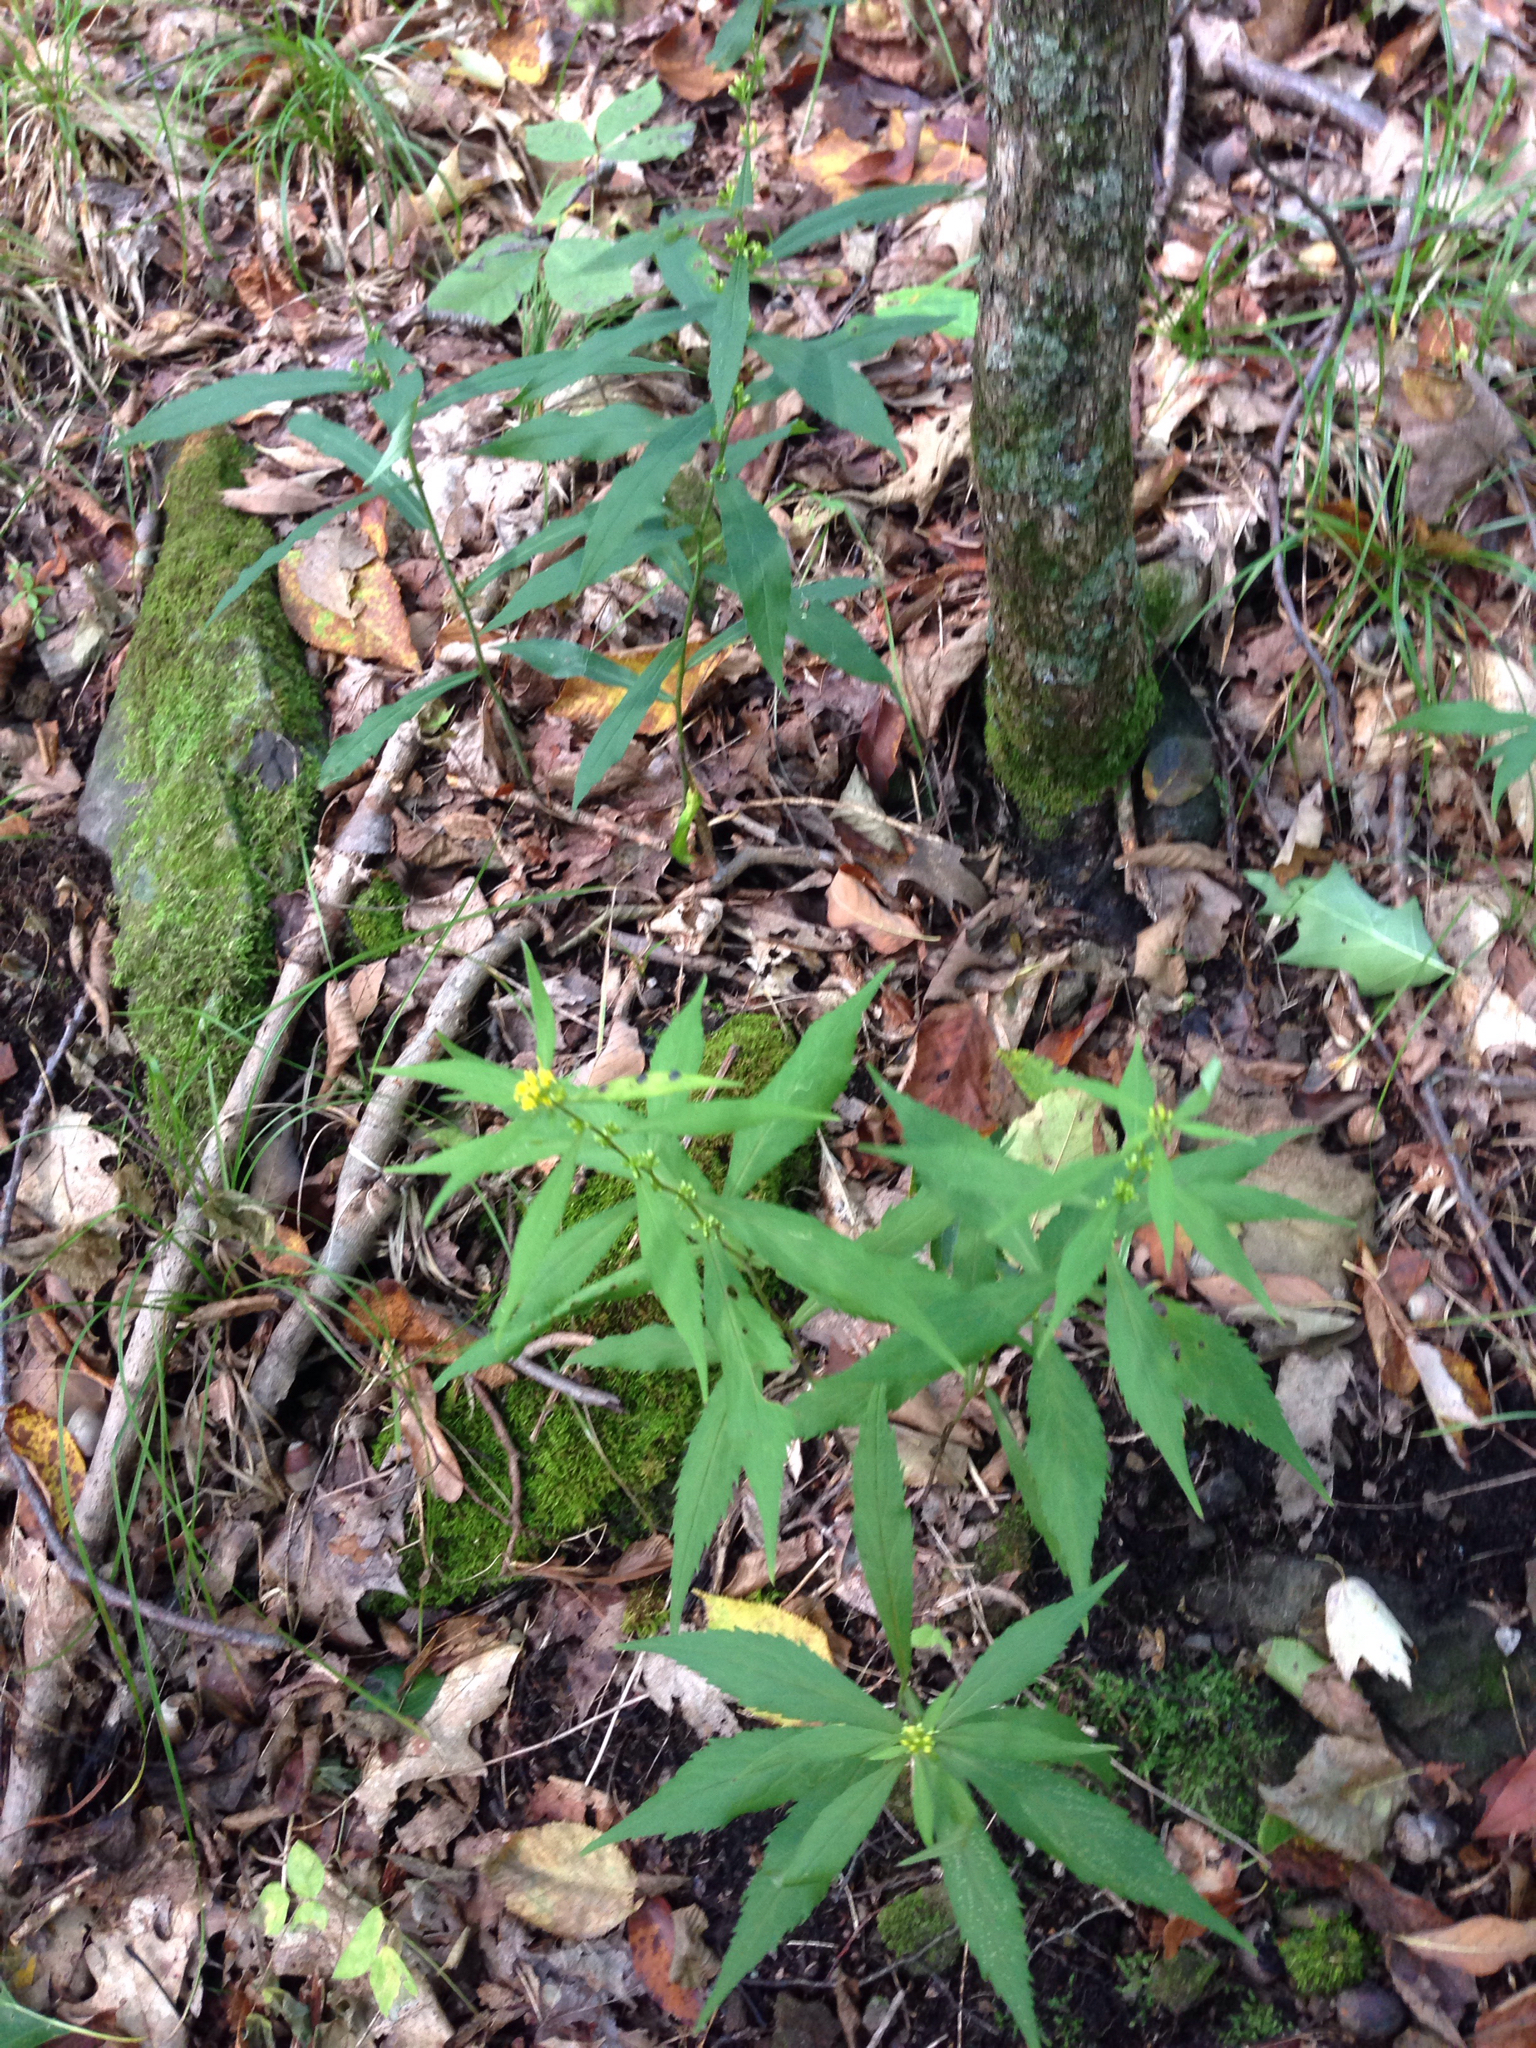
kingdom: Plantae
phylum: Tracheophyta
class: Magnoliopsida
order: Asterales
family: Asteraceae
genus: Solidago
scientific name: Solidago caesia
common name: Woodland goldenrod
